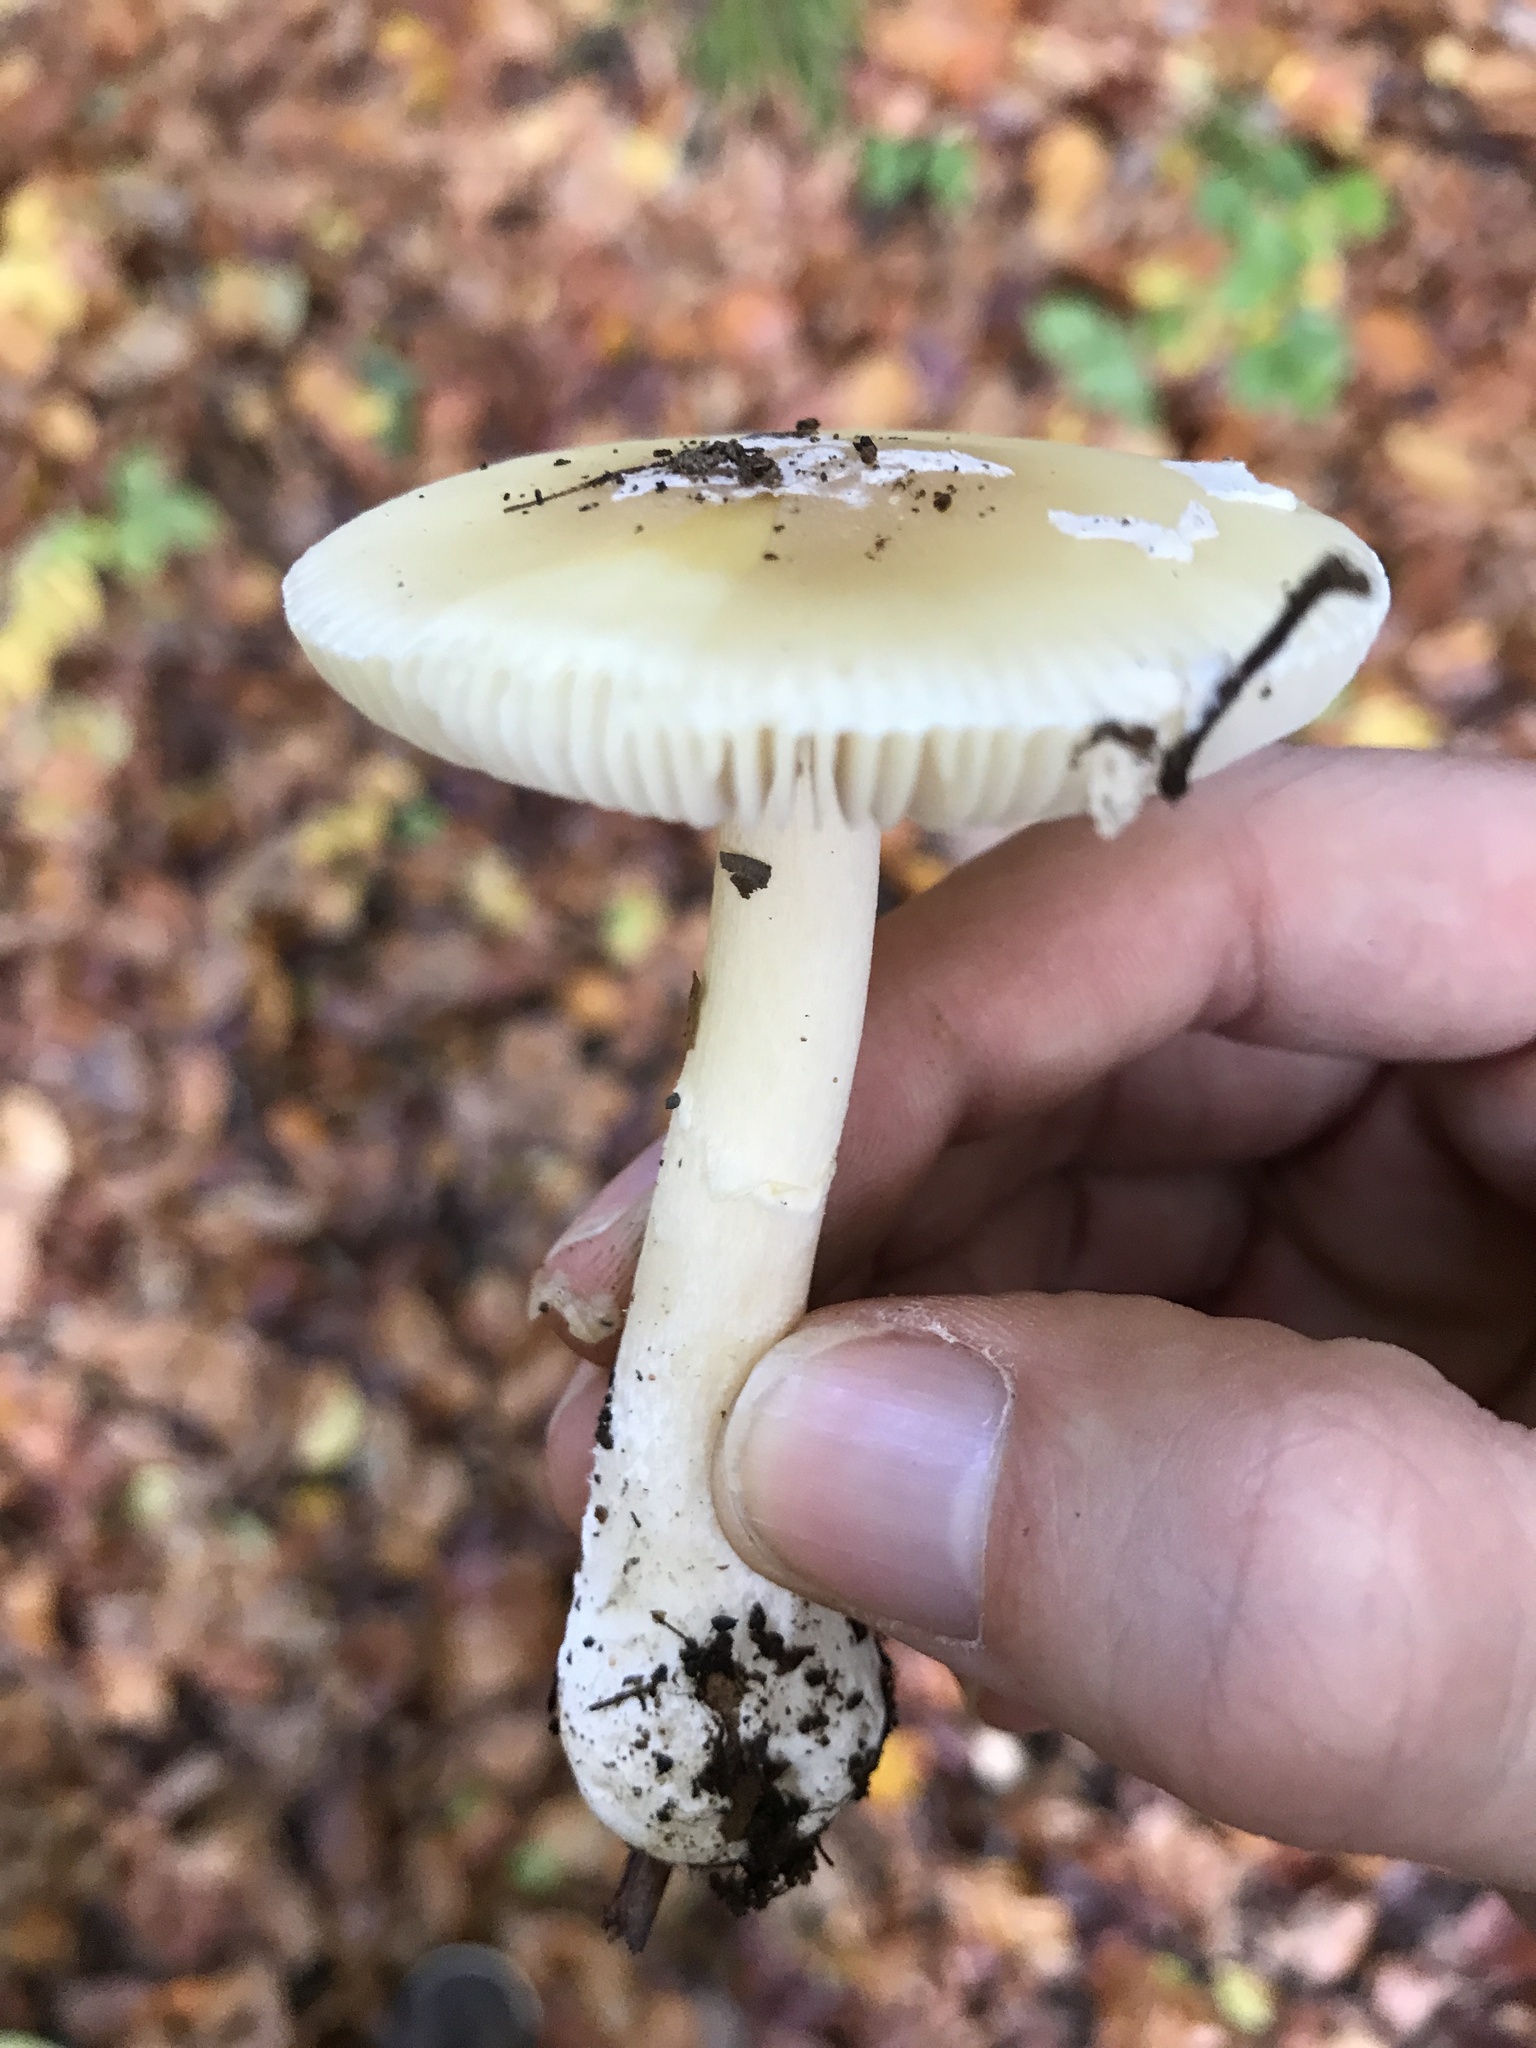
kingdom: Fungi
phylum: Basidiomycota
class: Agaricomycetes
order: Agaricales
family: Amanitaceae
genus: Amanita
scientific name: Amanita gemmata
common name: Jewelled amanita
